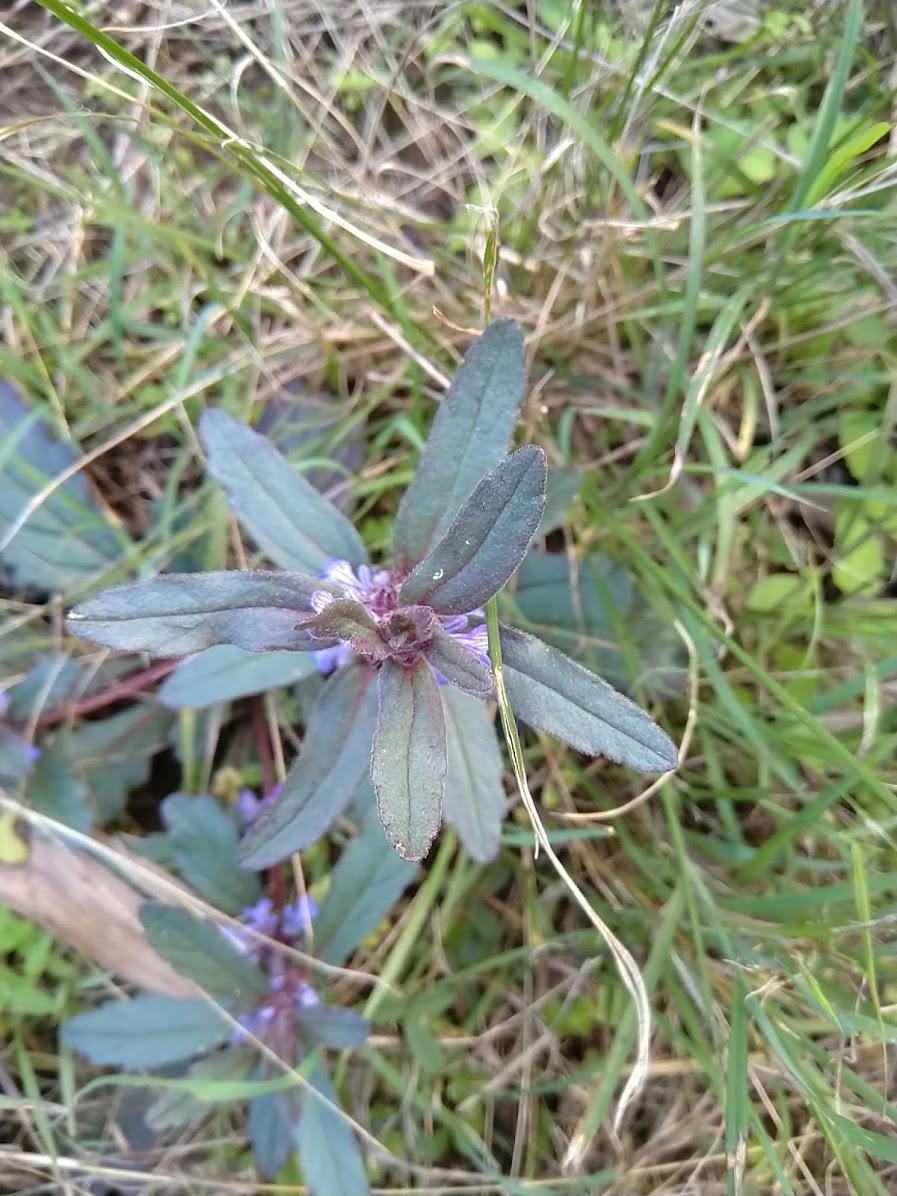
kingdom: Plantae
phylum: Tracheophyta
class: Magnoliopsida
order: Lamiales
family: Lamiaceae
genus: Ajuga
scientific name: Ajuga australis
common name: Australian bugle
